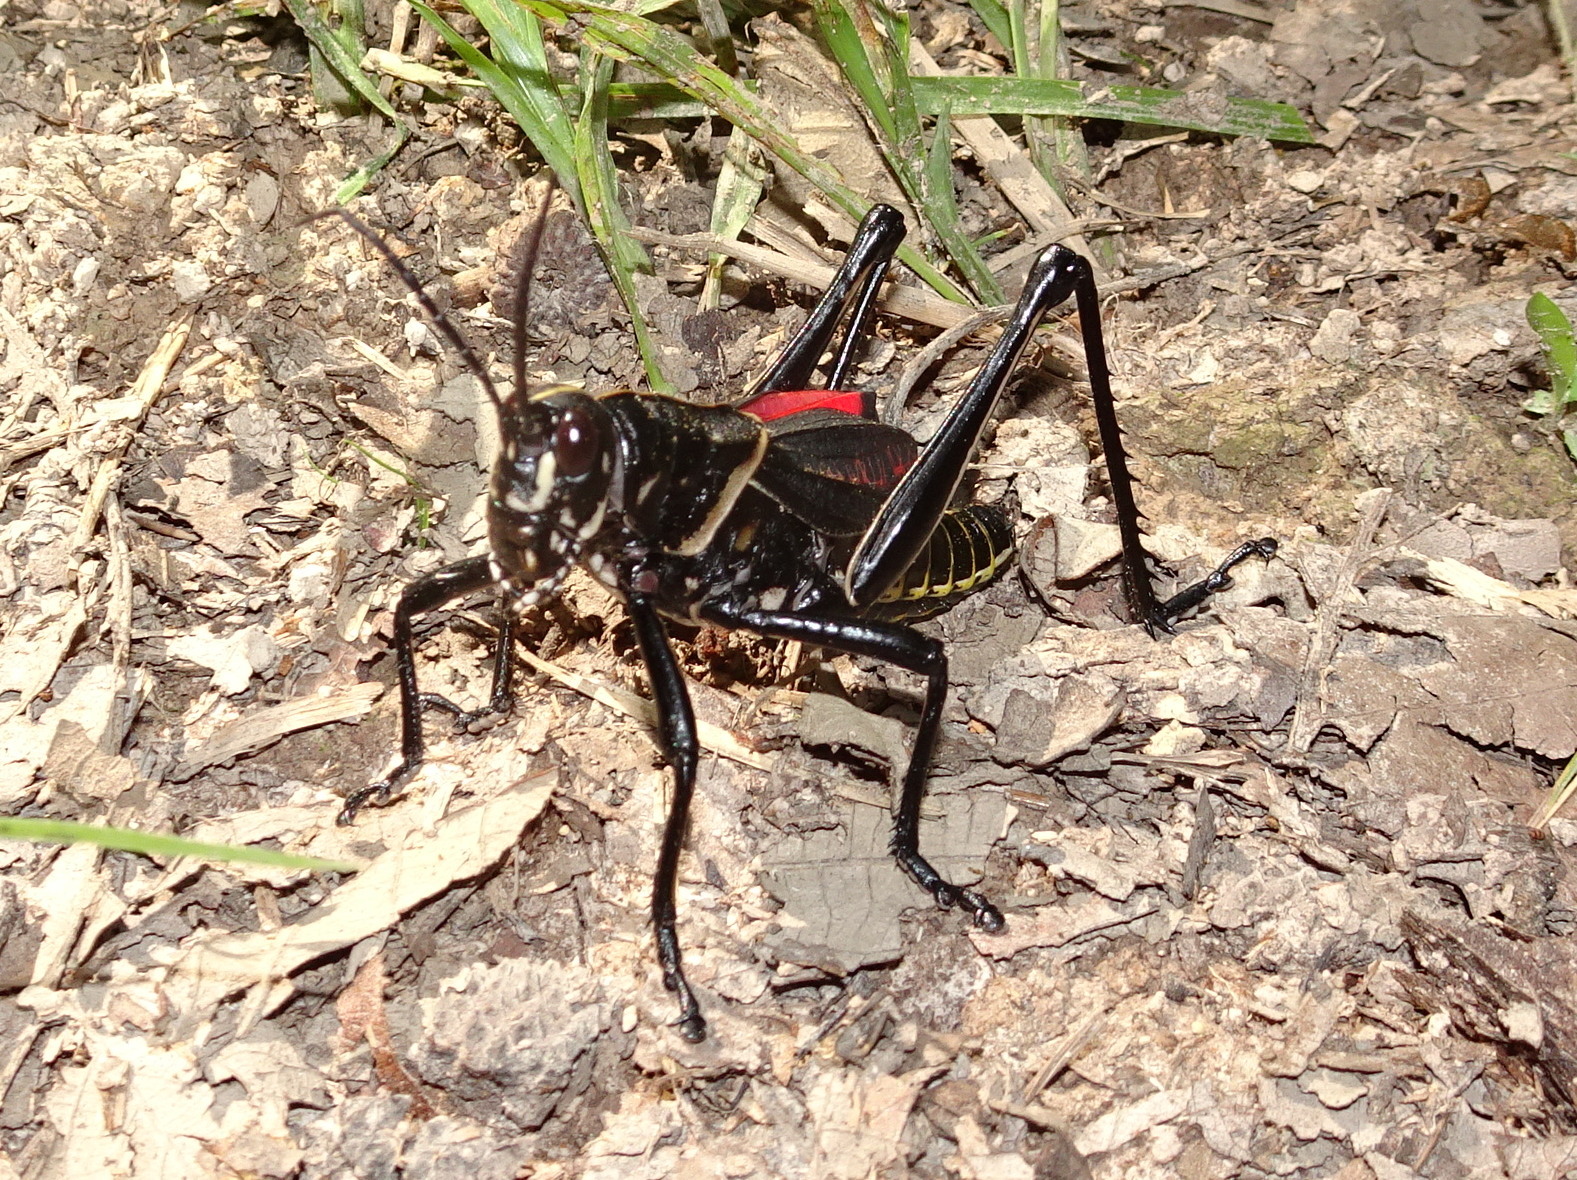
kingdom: Animalia
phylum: Arthropoda
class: Insecta
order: Orthoptera
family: Romaleidae
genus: Romalea
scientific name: Romalea microptera
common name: Eastern lubber grasshopper
